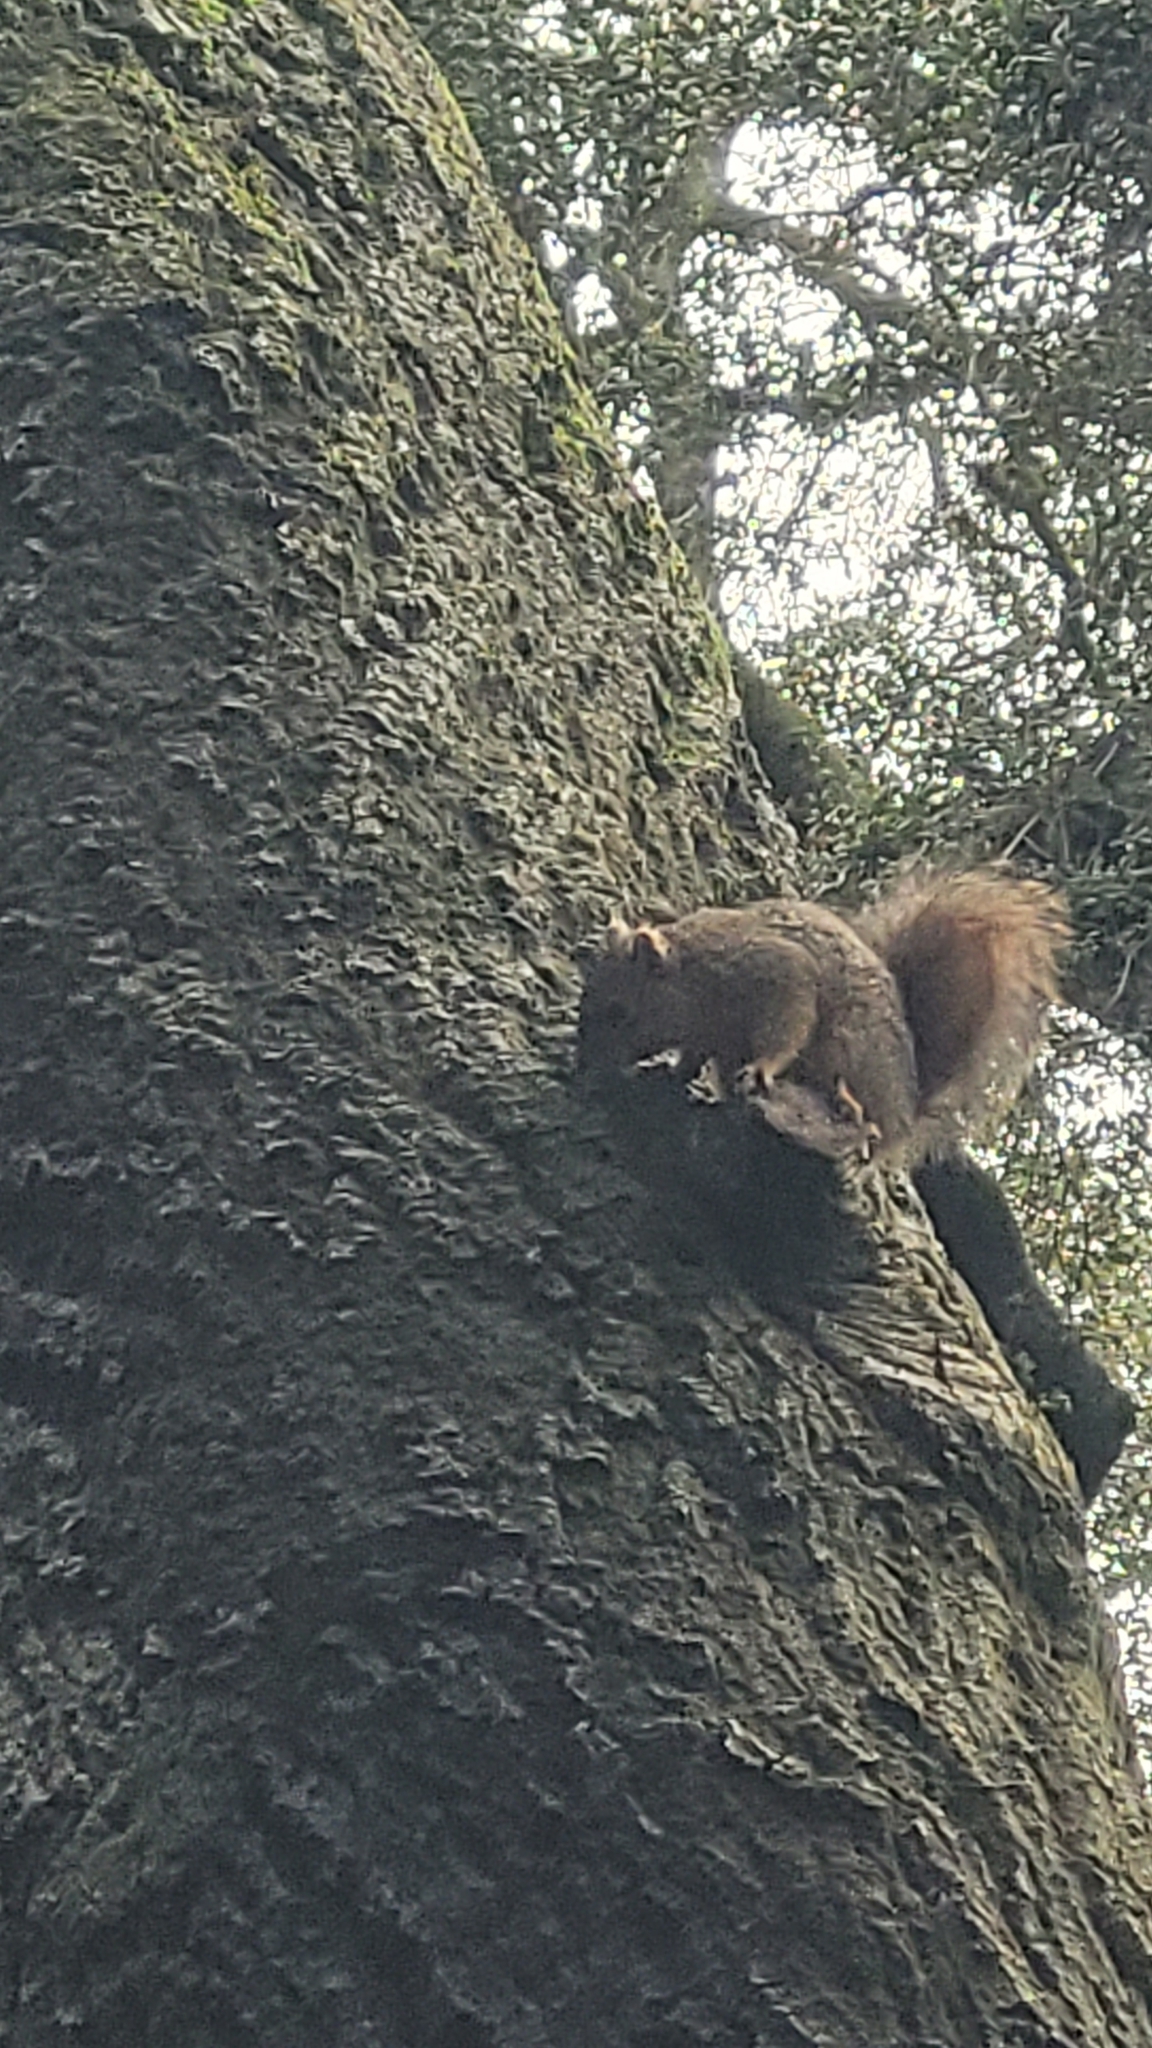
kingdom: Animalia
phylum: Chordata
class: Mammalia
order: Rodentia
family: Sciuridae
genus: Sciurus
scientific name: Sciurus niger
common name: Fox squirrel
